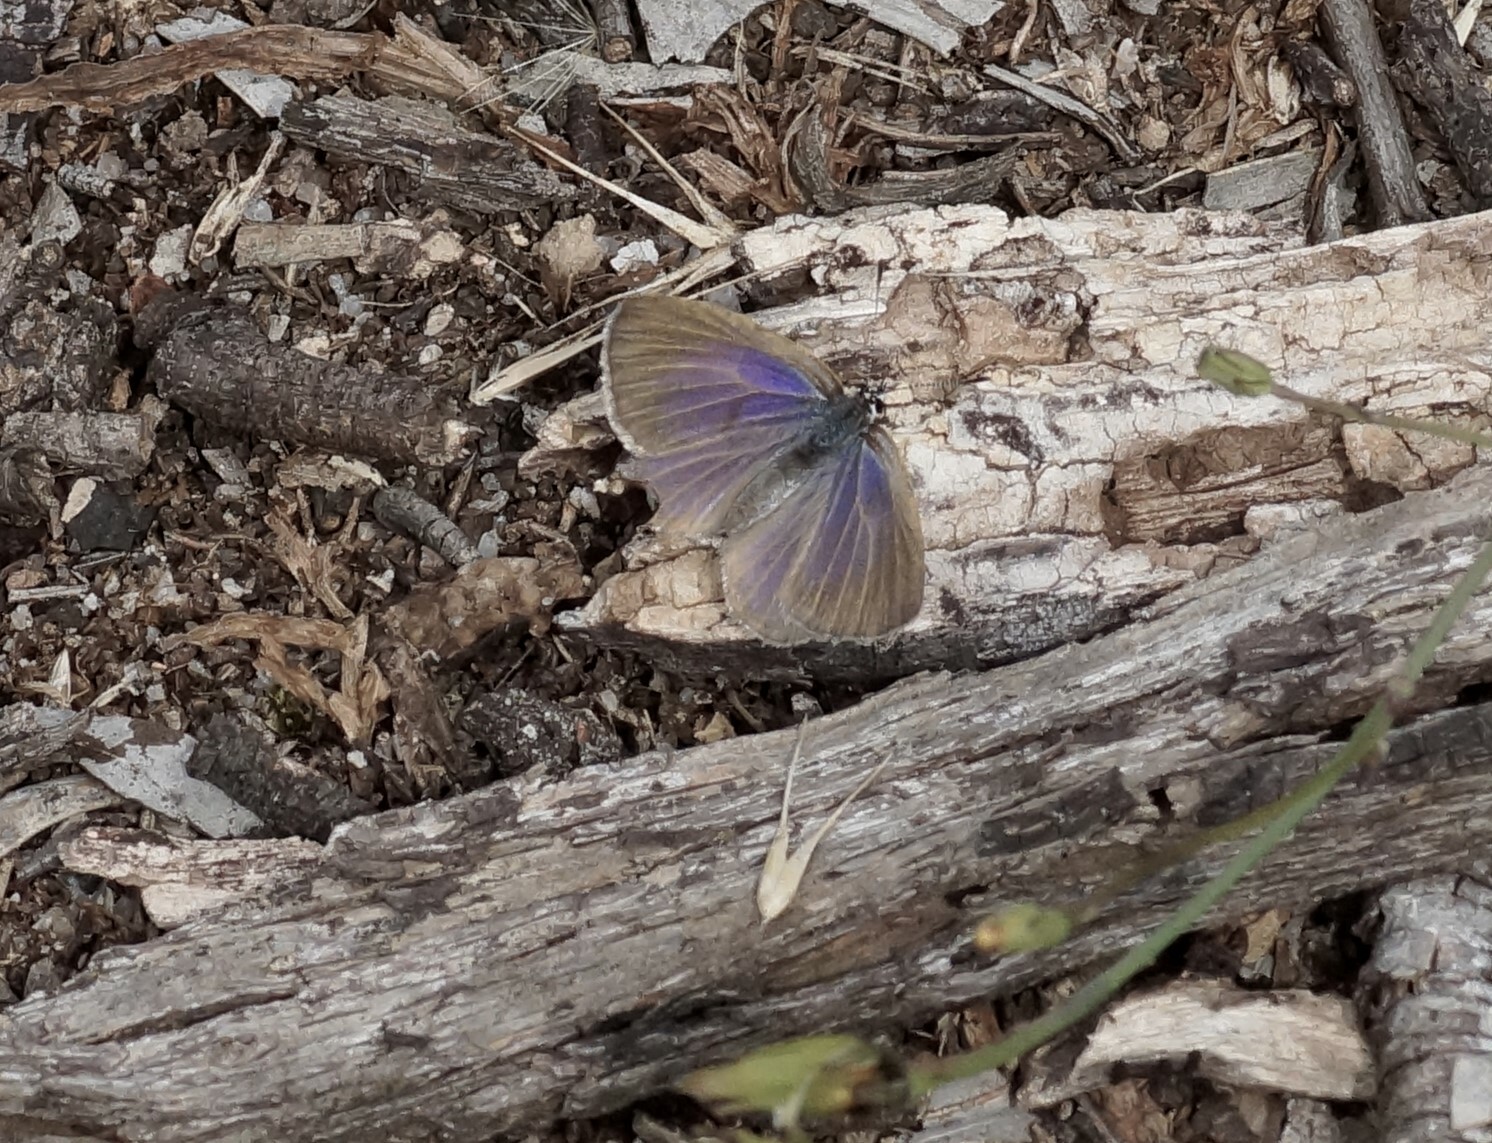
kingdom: Animalia
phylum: Arthropoda
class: Insecta
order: Lepidoptera
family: Lycaenidae
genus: Candalides
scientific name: Candalides heathi
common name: Rayed blue
